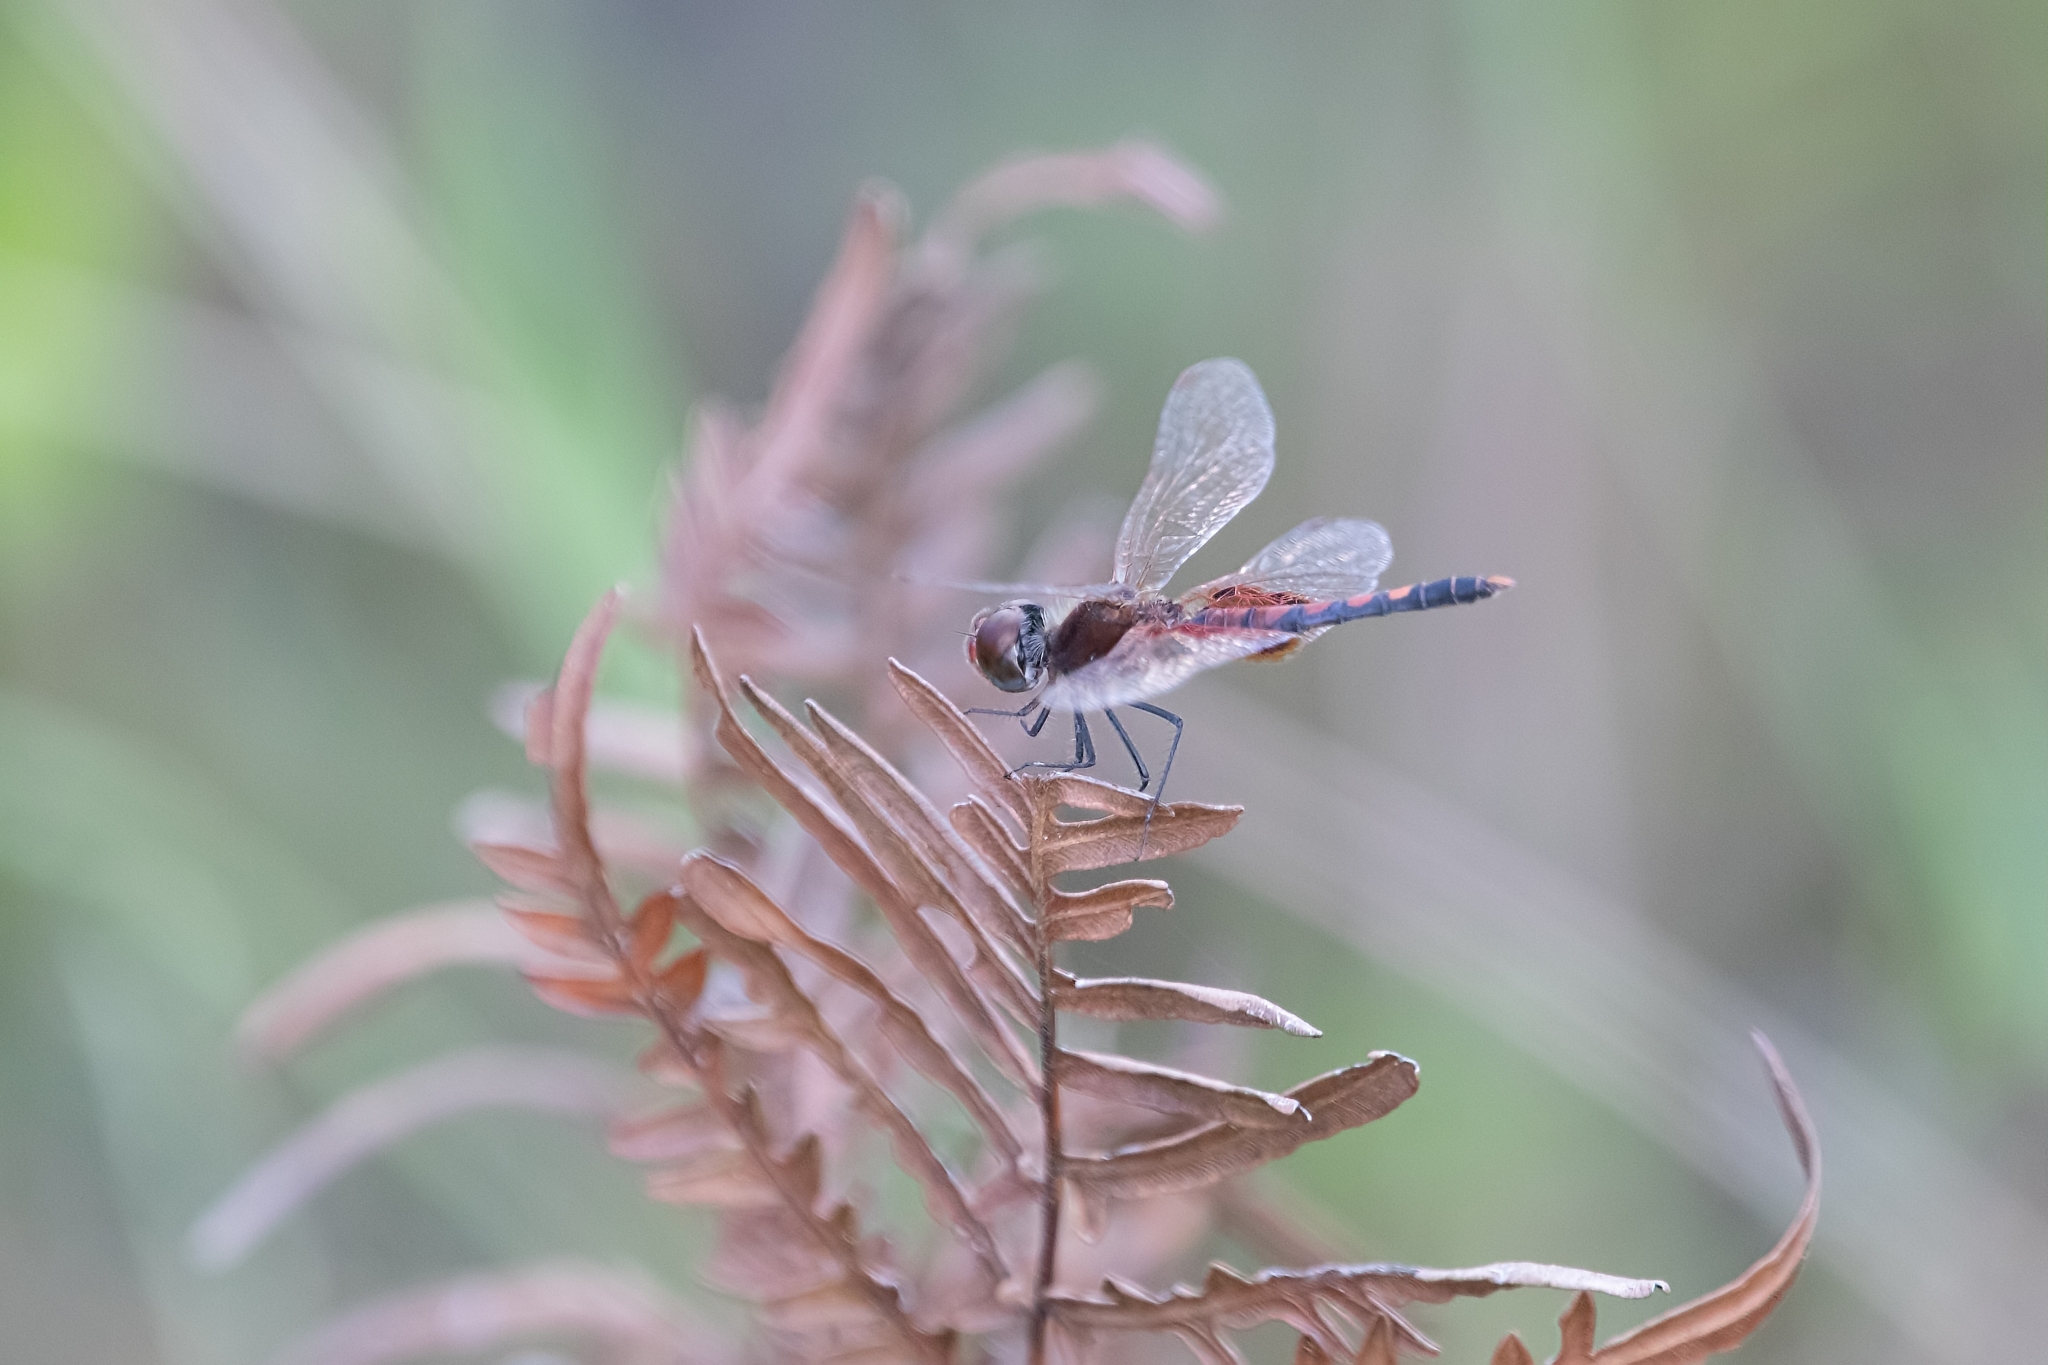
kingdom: Animalia
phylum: Arthropoda
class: Insecta
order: Odonata
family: Libellulidae
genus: Celithemis
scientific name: Celithemis amanda
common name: Amanda's pennant
